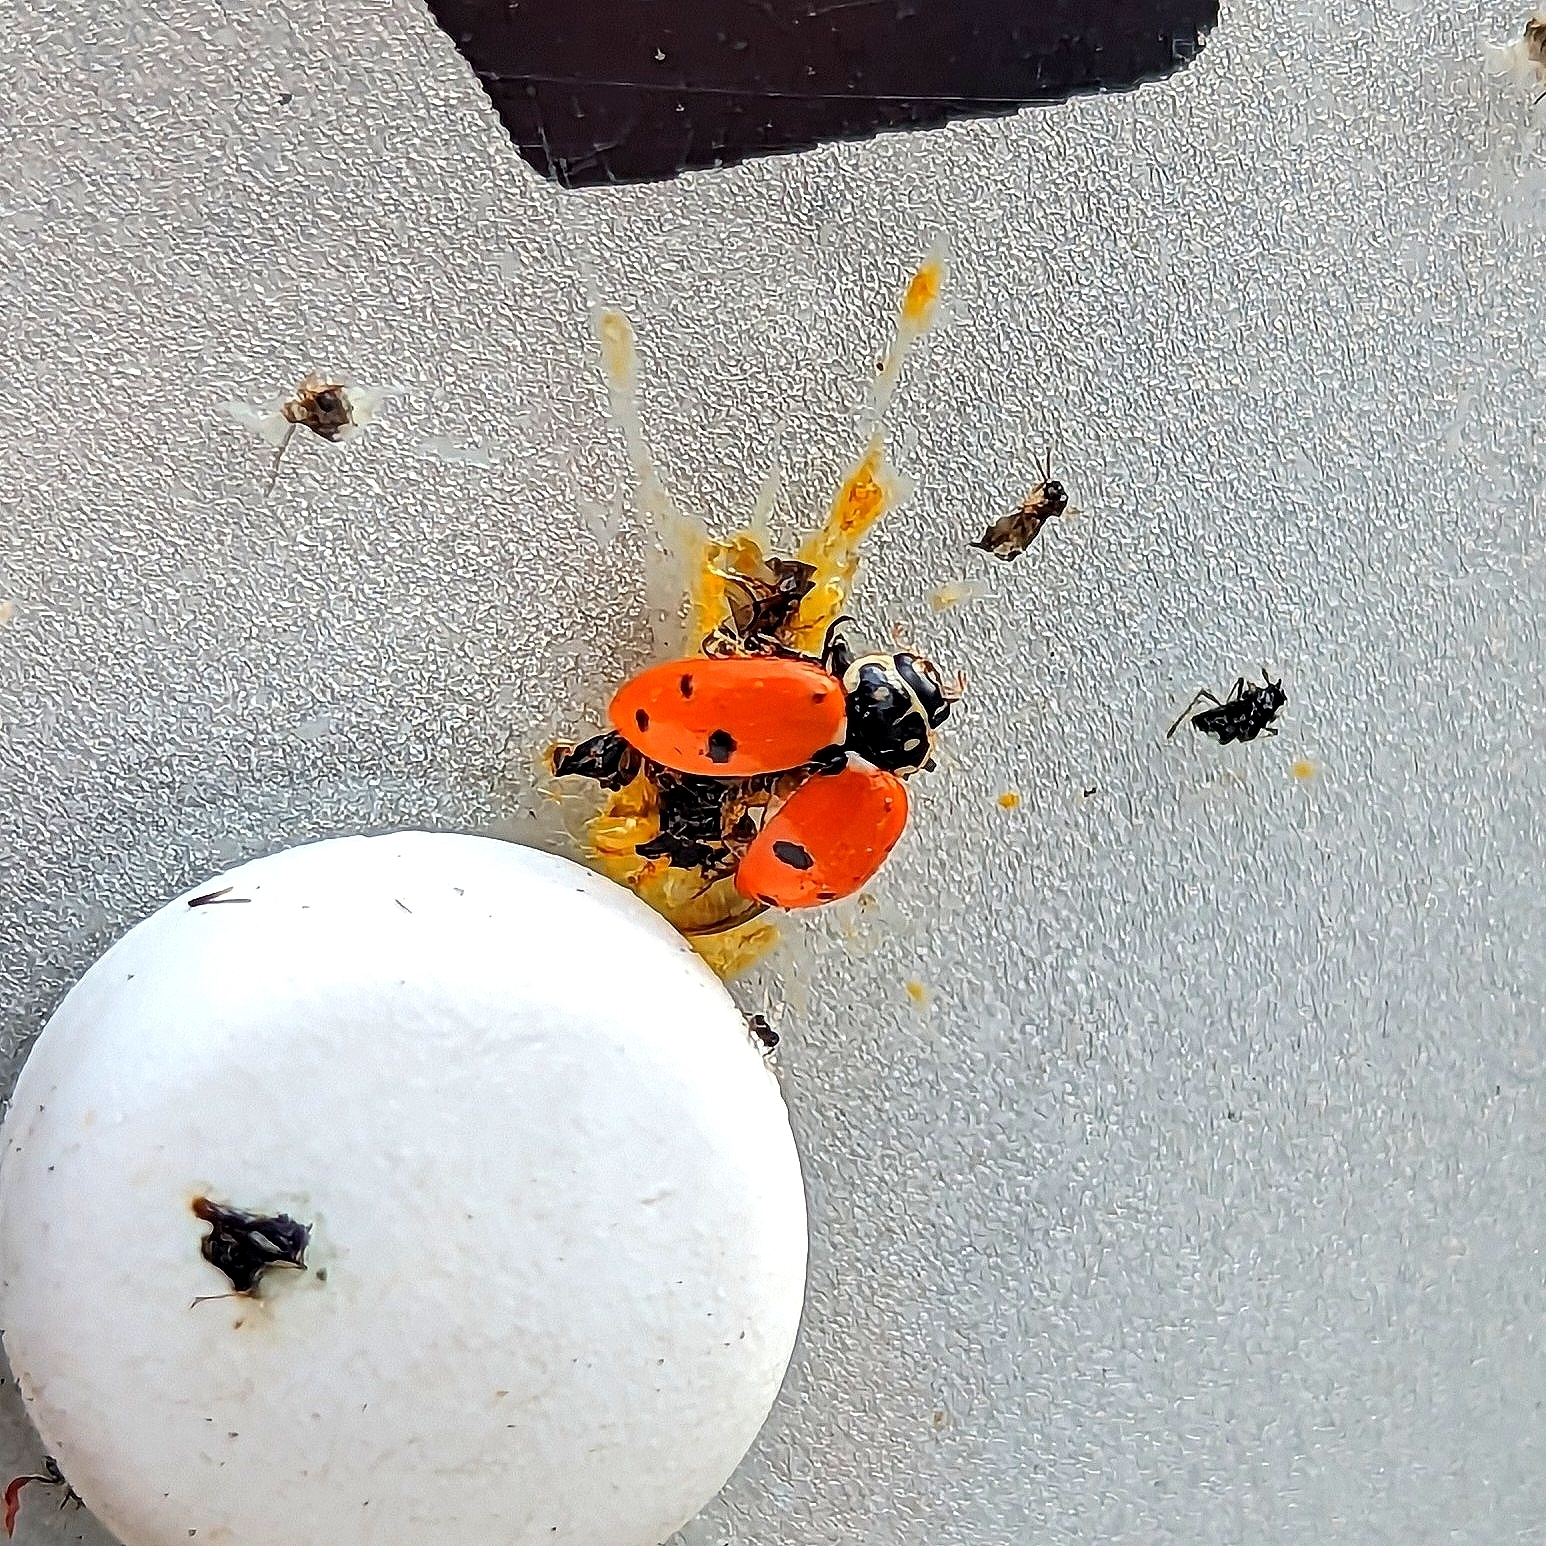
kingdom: Animalia
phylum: Arthropoda
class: Insecta
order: Coleoptera
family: Coccinellidae
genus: Hippodamia
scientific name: Hippodamia variegata
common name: Ladybird beetle
